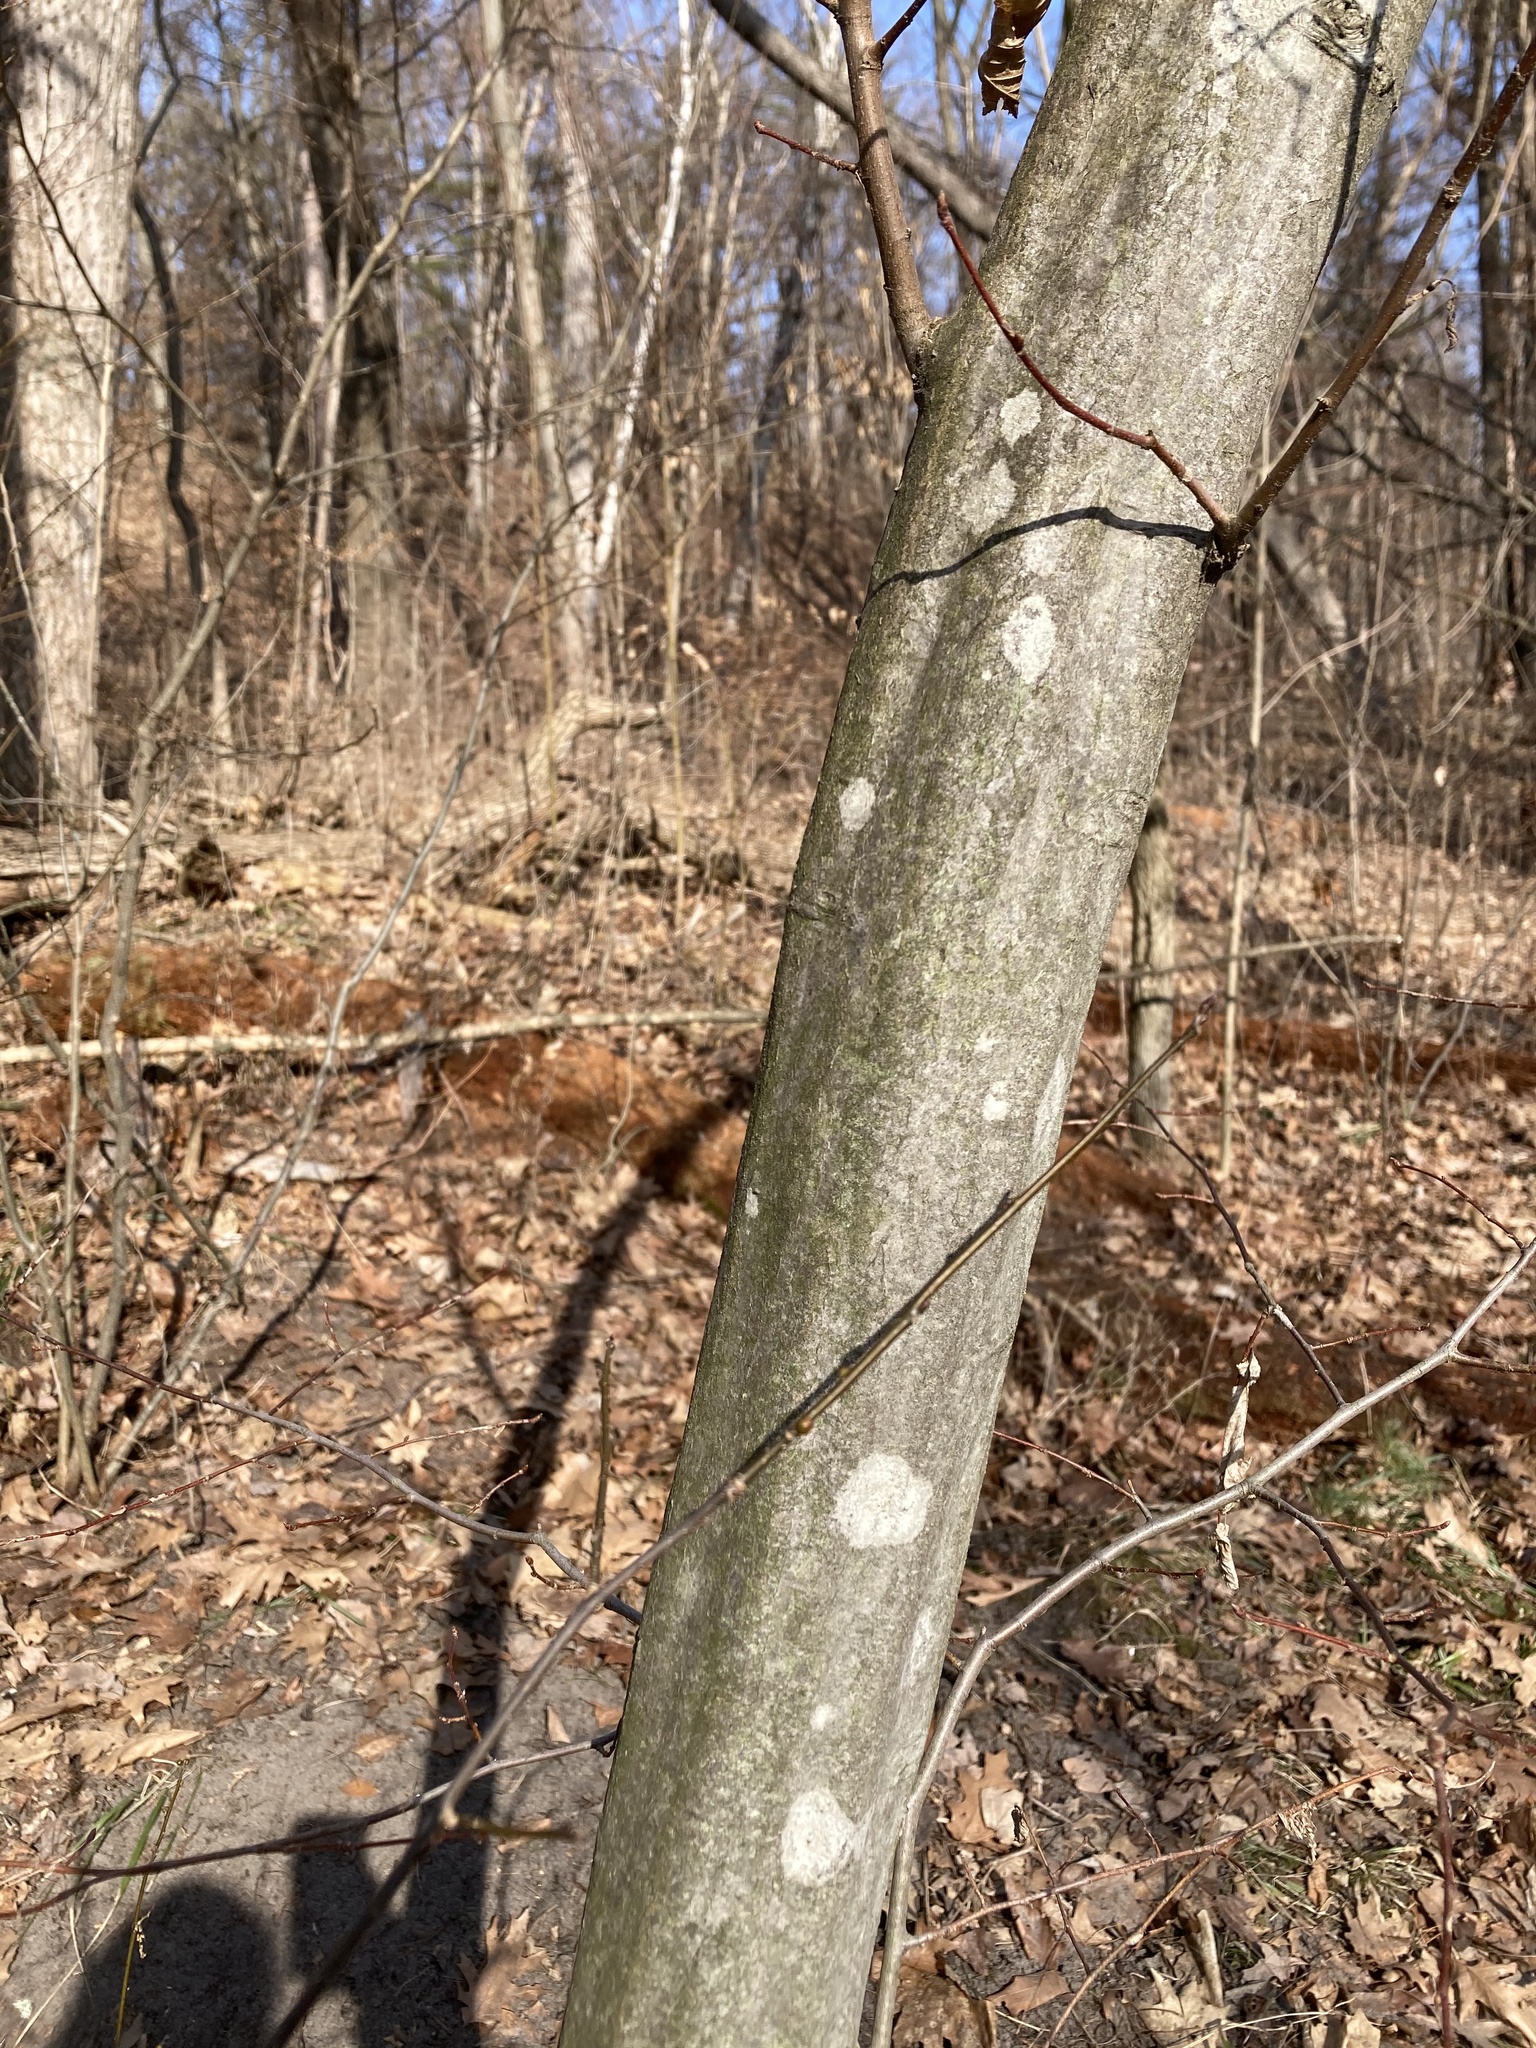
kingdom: Plantae
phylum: Tracheophyta
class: Magnoliopsida
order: Fagales
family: Betulaceae
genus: Carpinus
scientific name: Carpinus caroliniana
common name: American hornbeam
